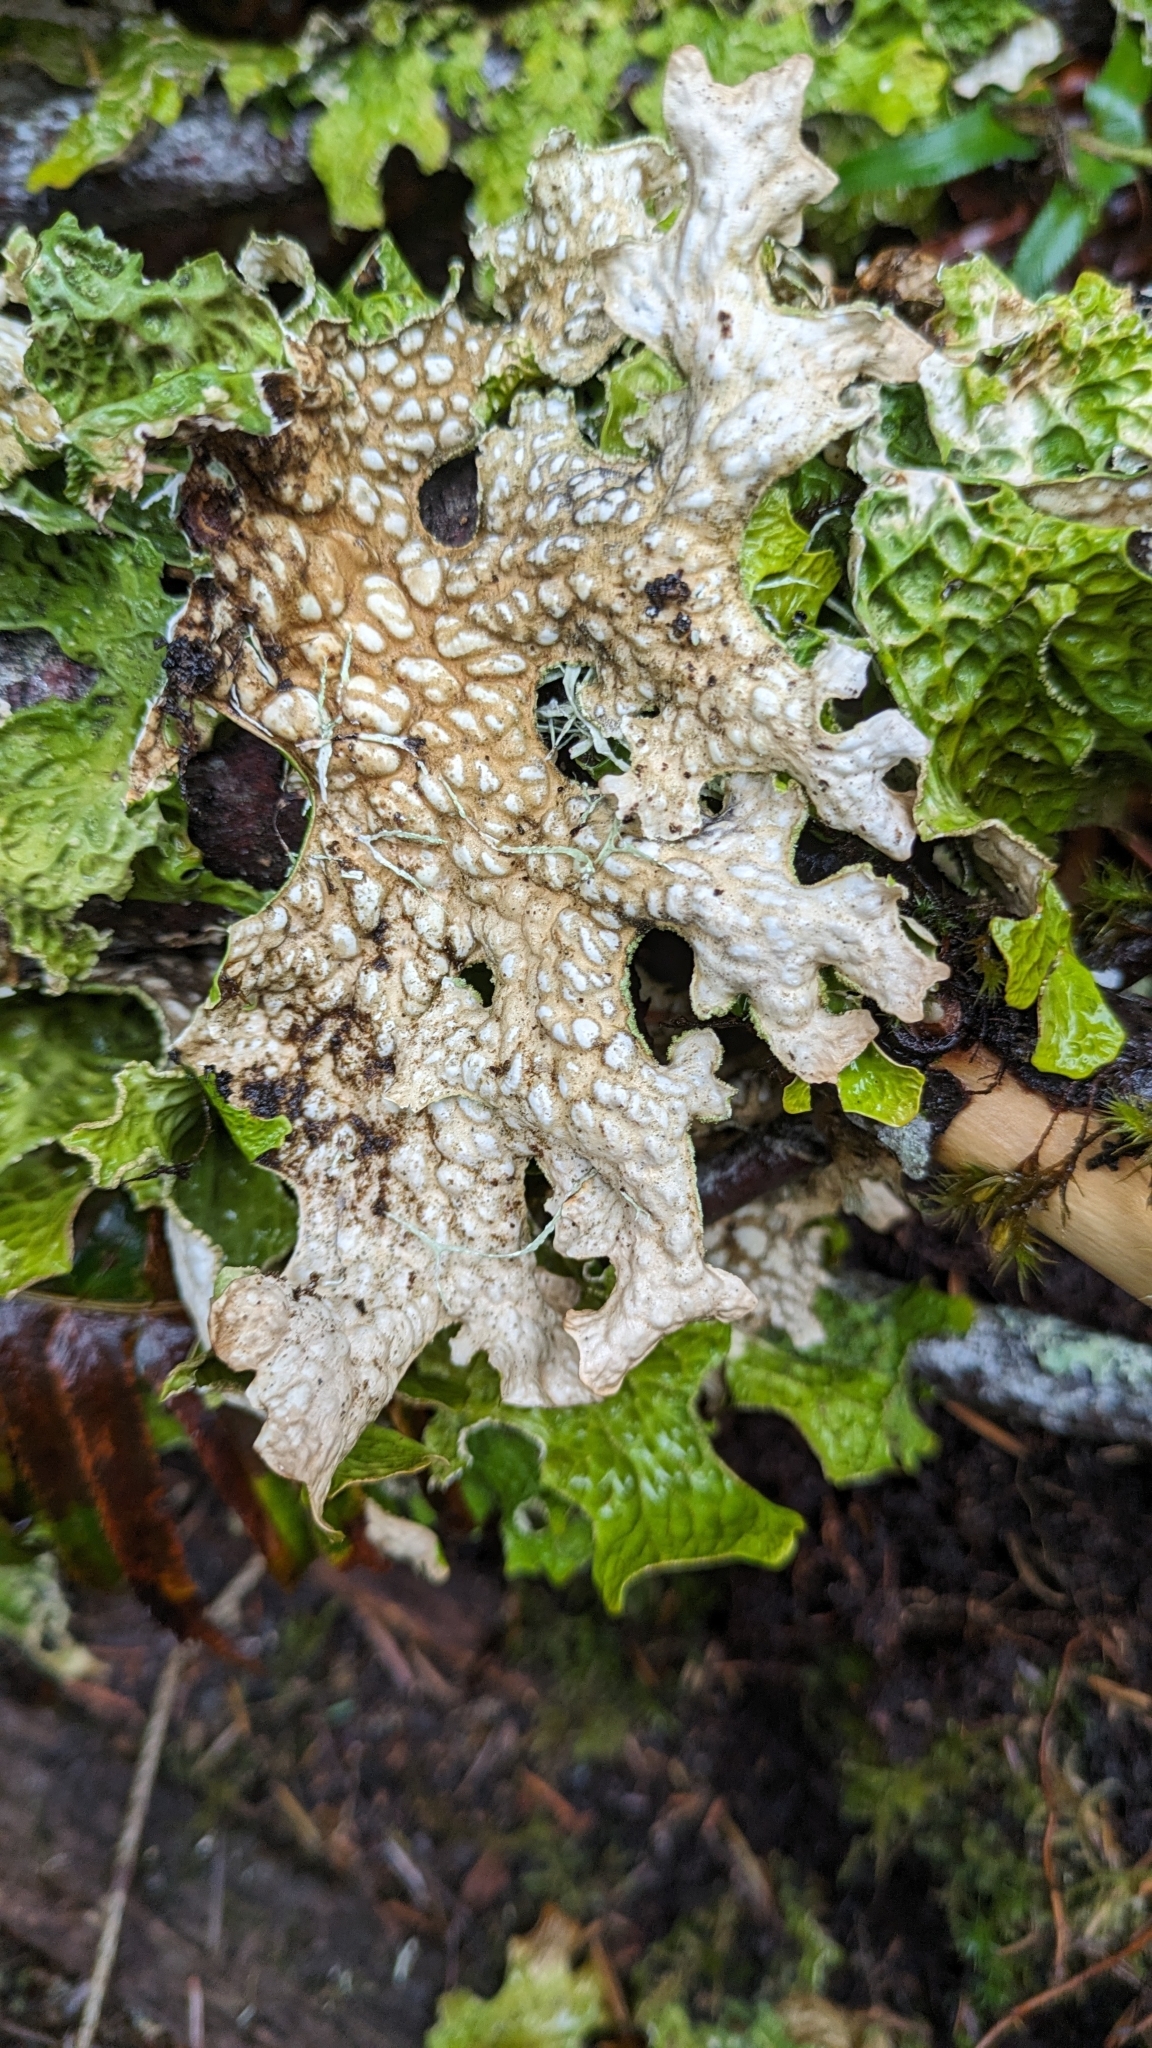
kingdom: Fungi
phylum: Ascomycota
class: Lecanoromycetes
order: Peltigerales
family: Lobariaceae
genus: Lobaria
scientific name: Lobaria pulmonaria
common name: Lungwort
